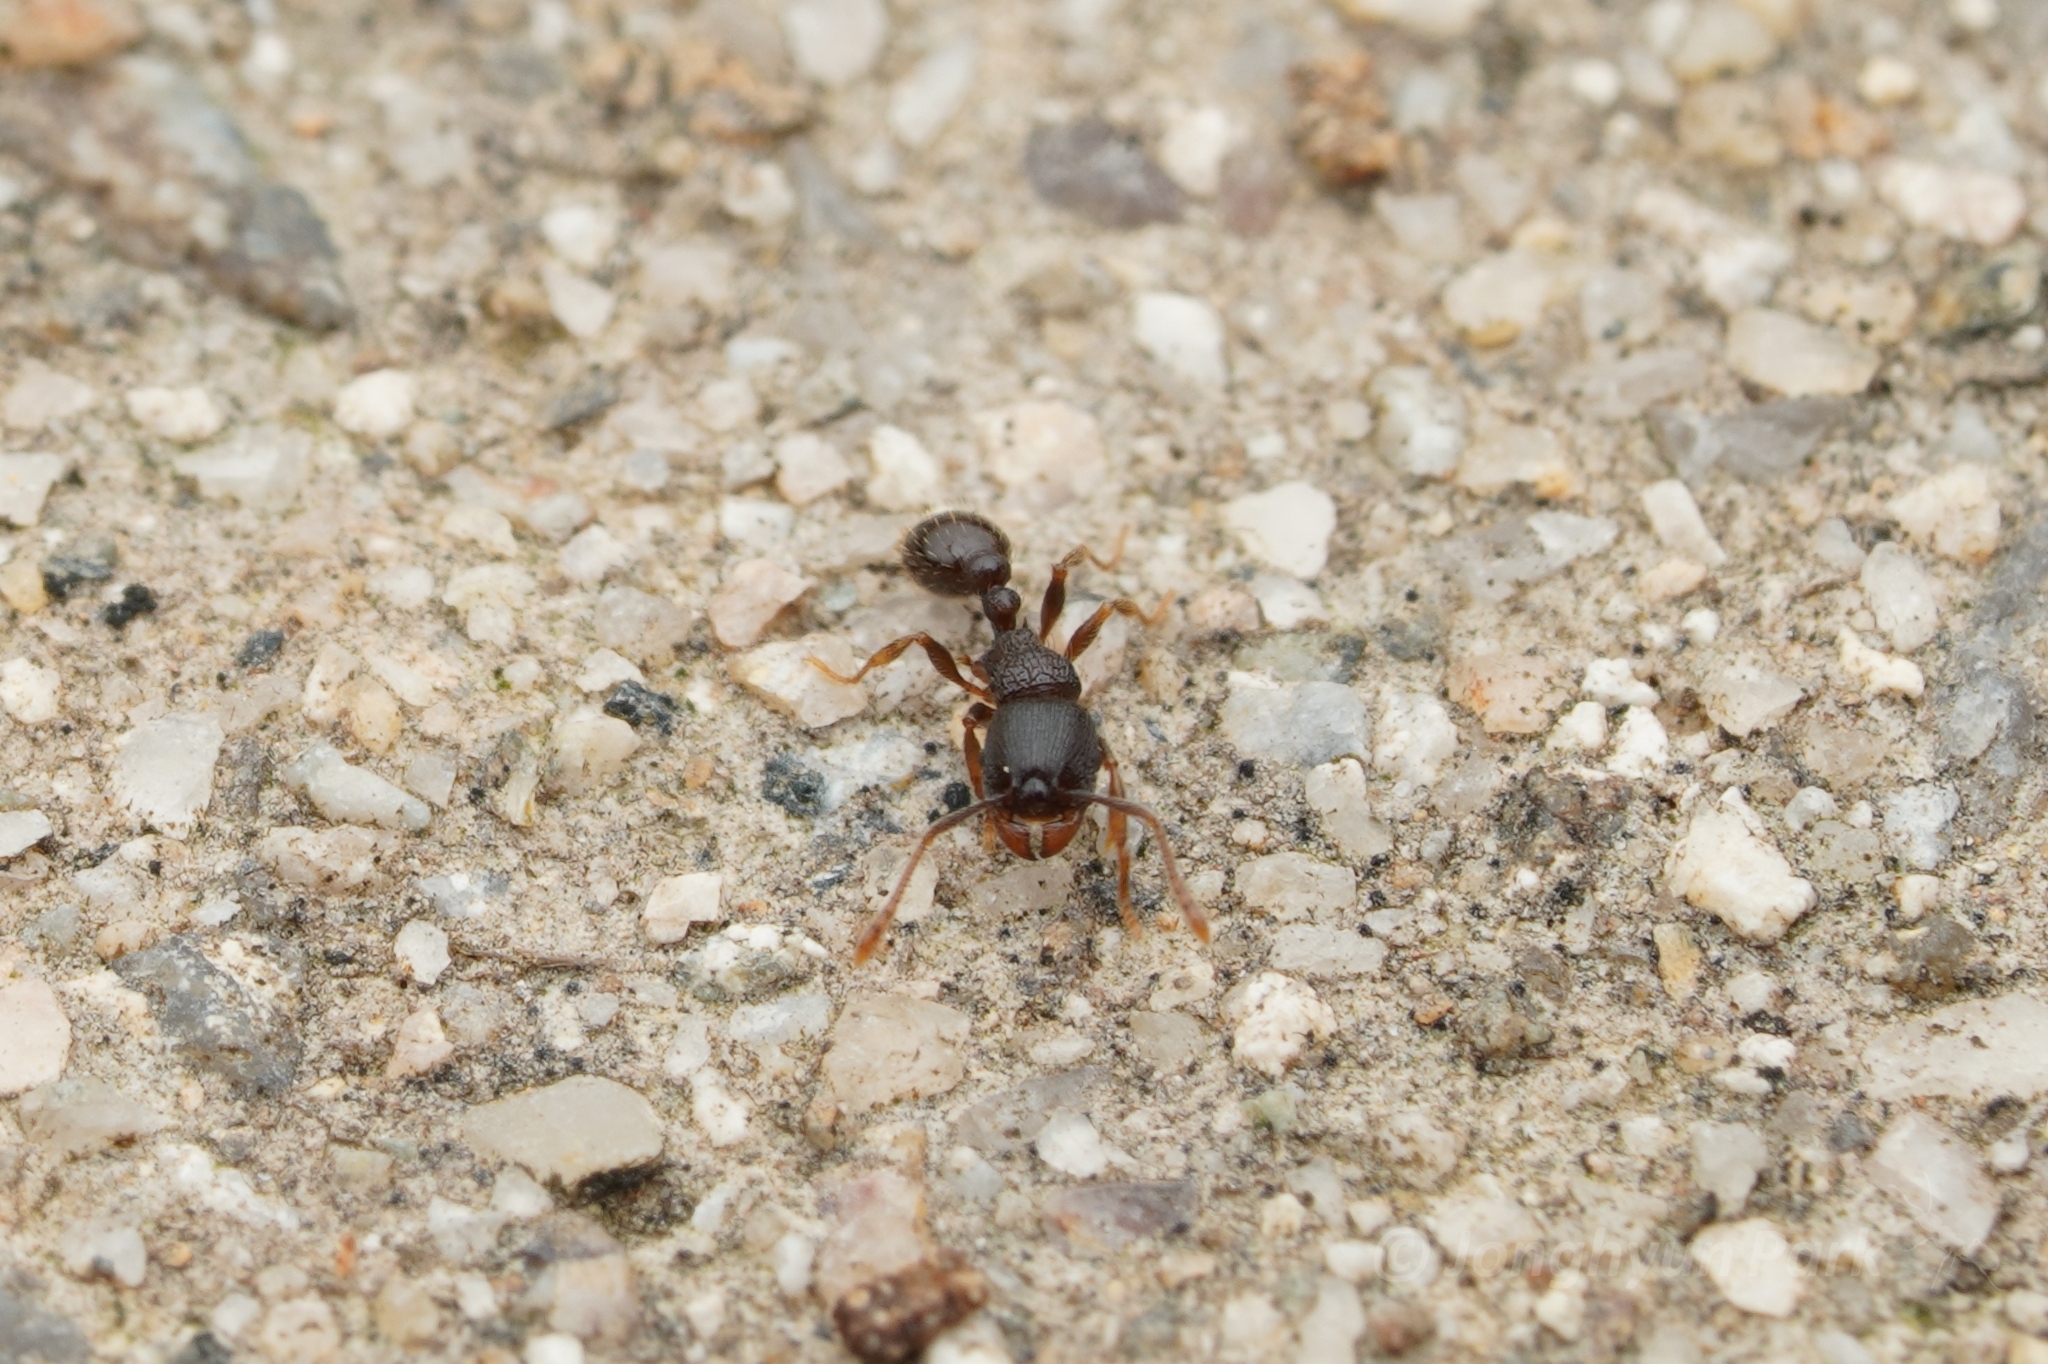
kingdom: Animalia
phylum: Arthropoda
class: Insecta
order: Hymenoptera
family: Formicidae
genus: Tetramorium
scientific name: Tetramorium tsushimae
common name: Ant
